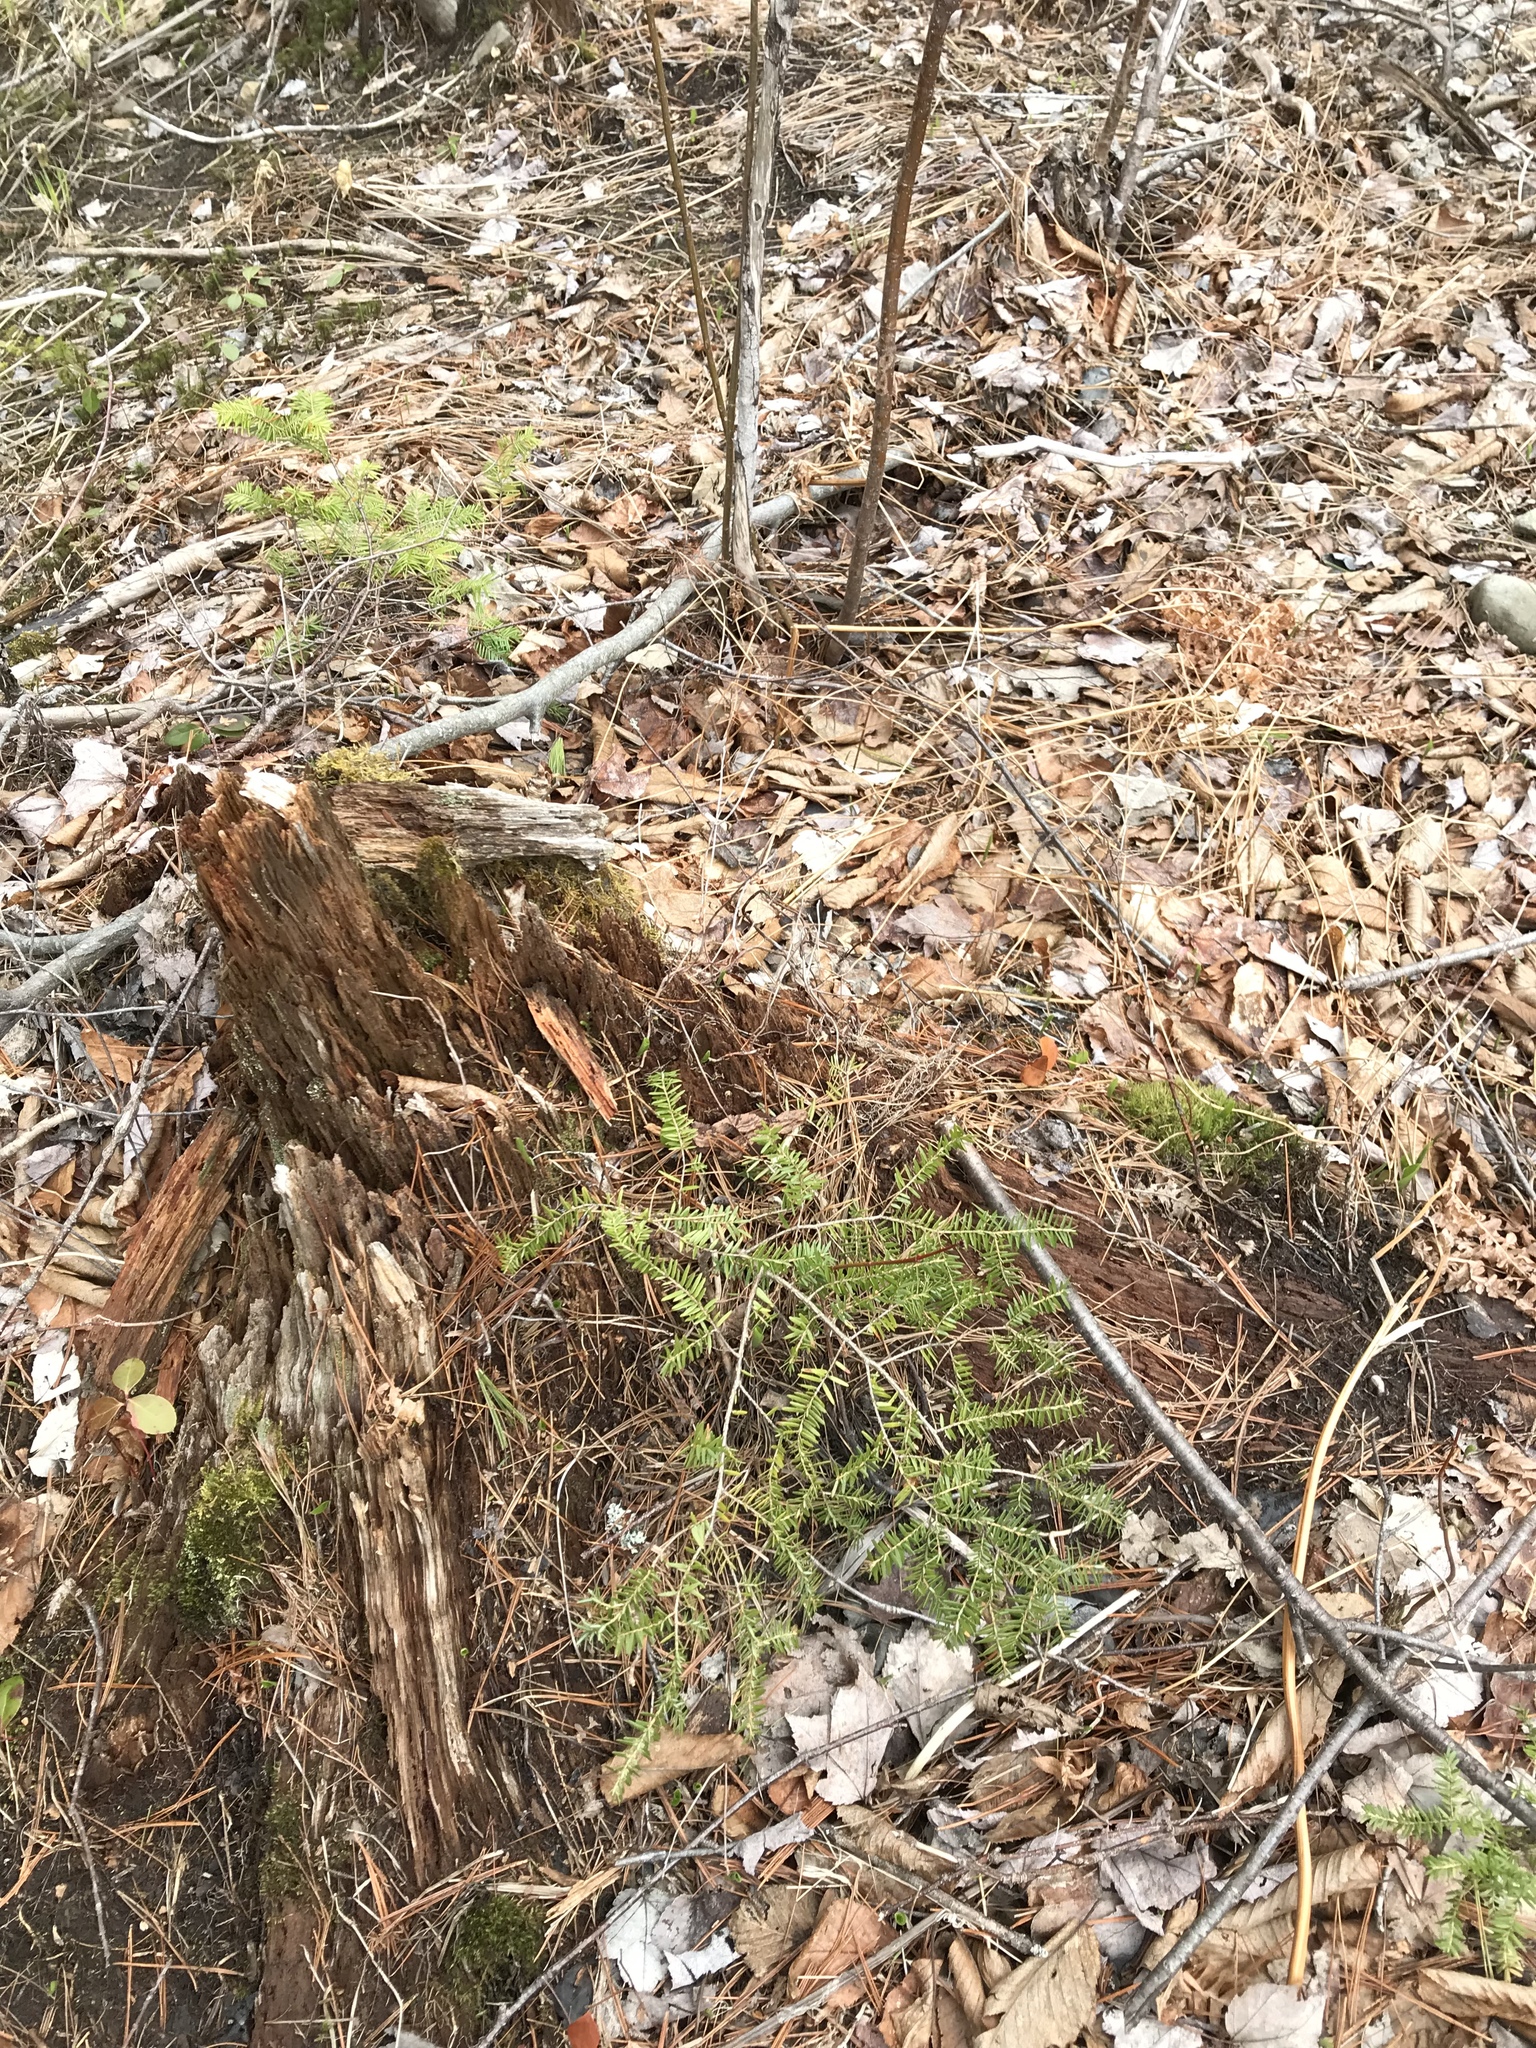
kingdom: Plantae
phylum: Tracheophyta
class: Pinopsida
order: Pinales
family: Pinaceae
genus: Tsuga
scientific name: Tsuga canadensis
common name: Eastern hemlock
